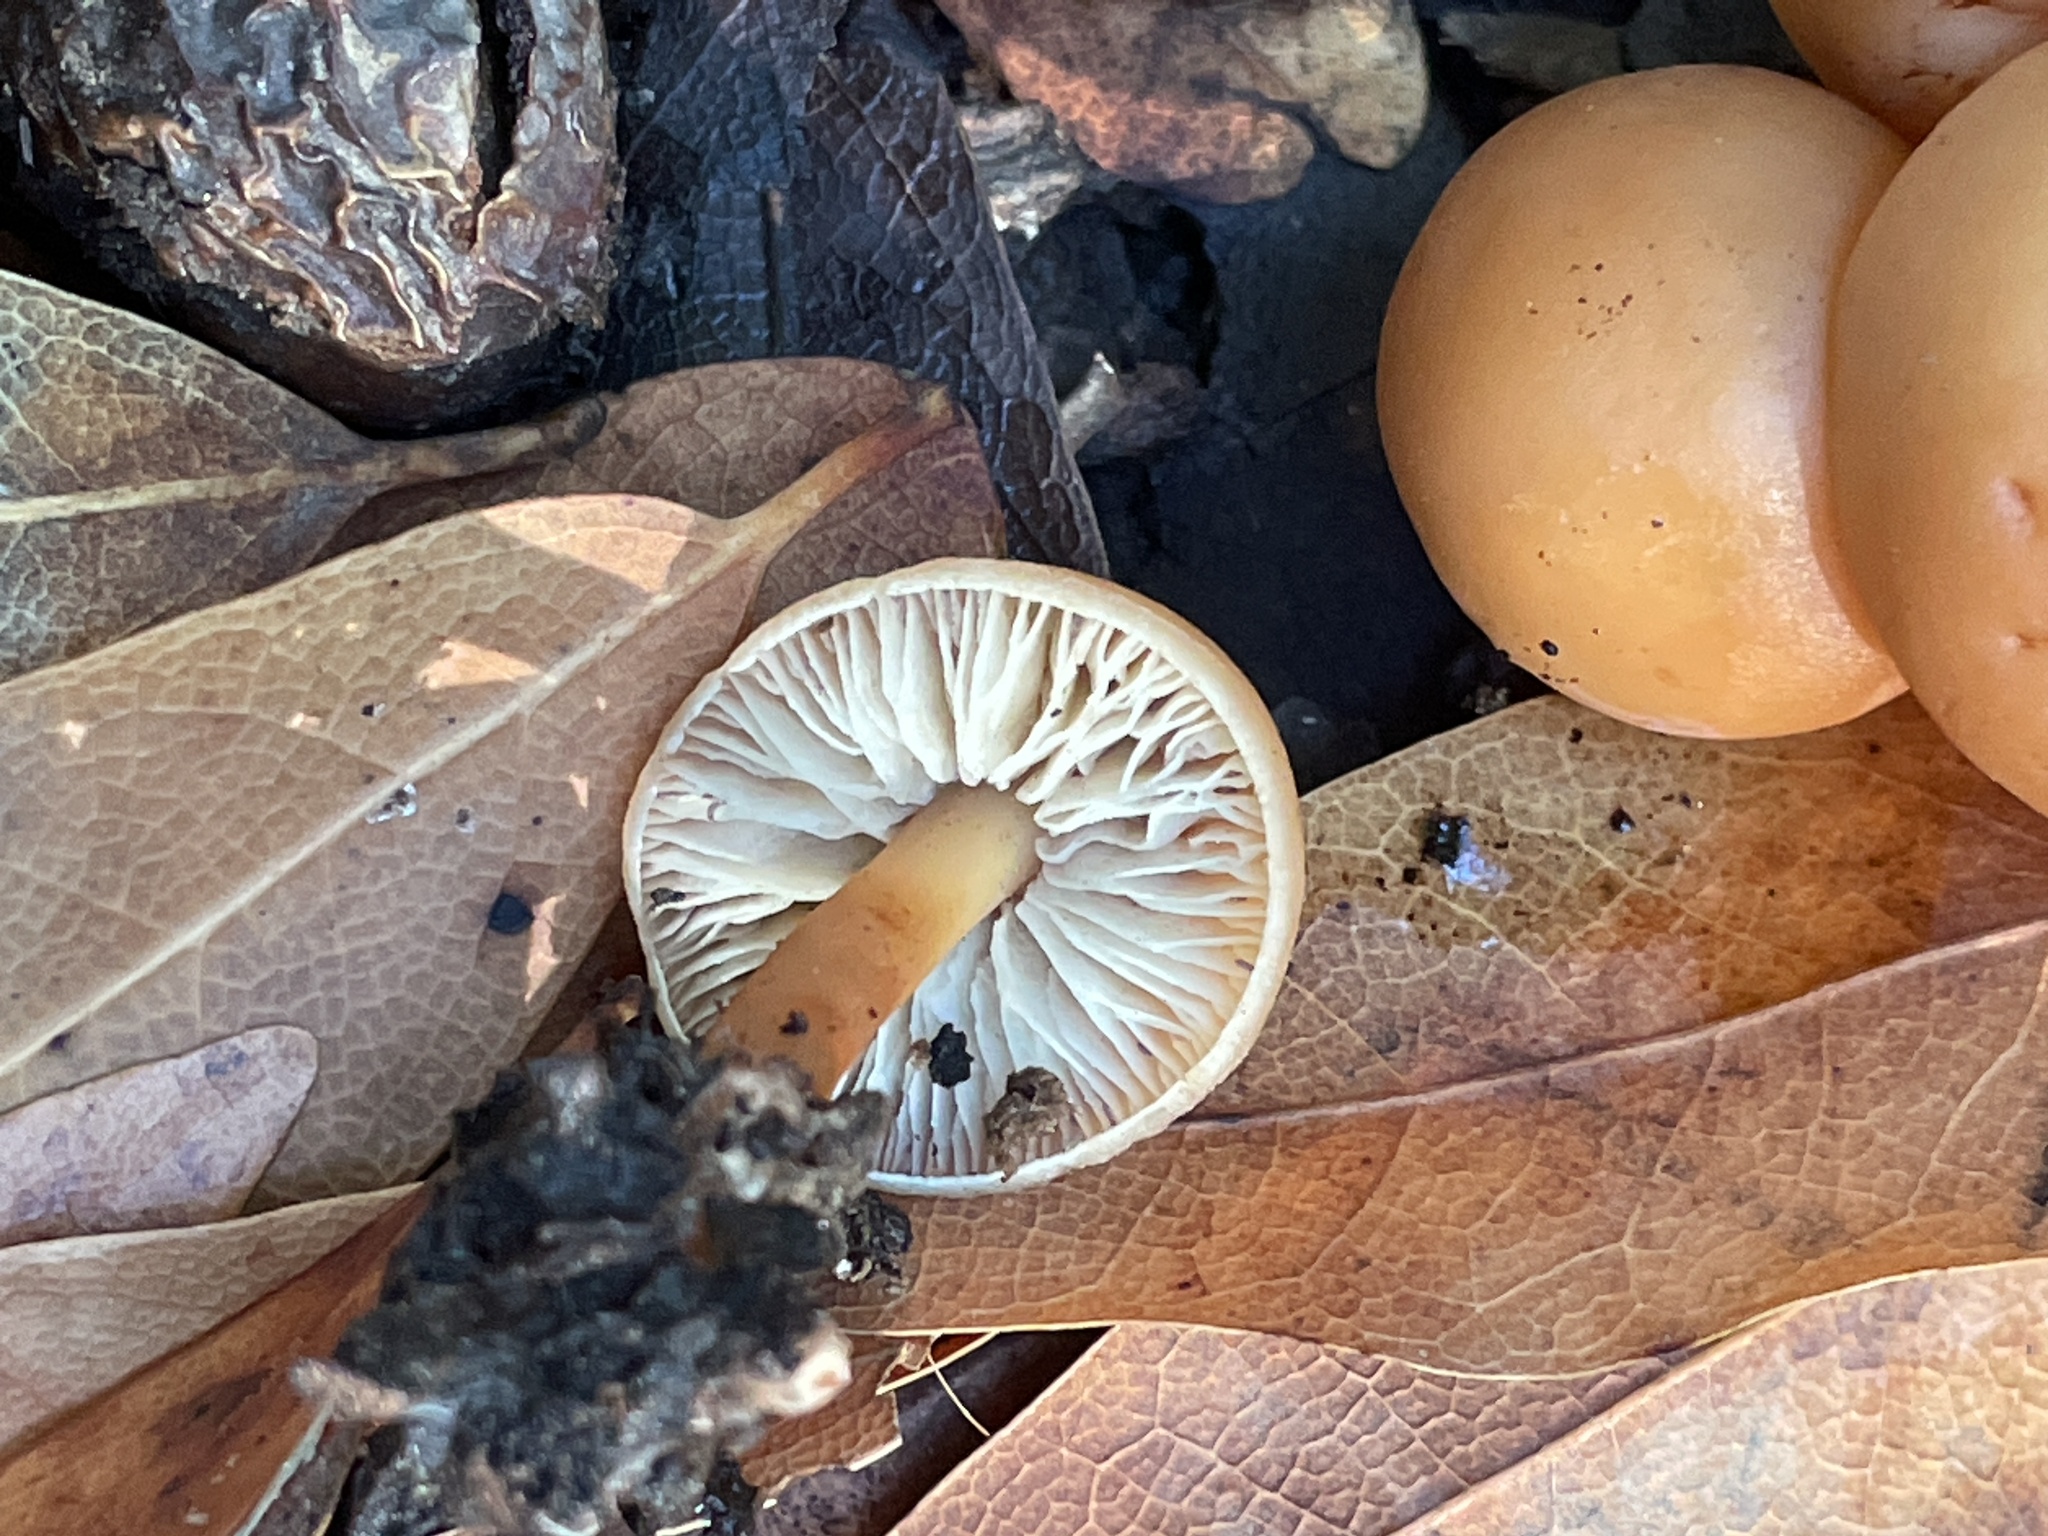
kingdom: Fungi
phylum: Basidiomycota
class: Agaricomycetes
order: Agaricales
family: Omphalotaceae
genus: Gymnopus
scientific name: Gymnopus dryophilus
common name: Penny top
